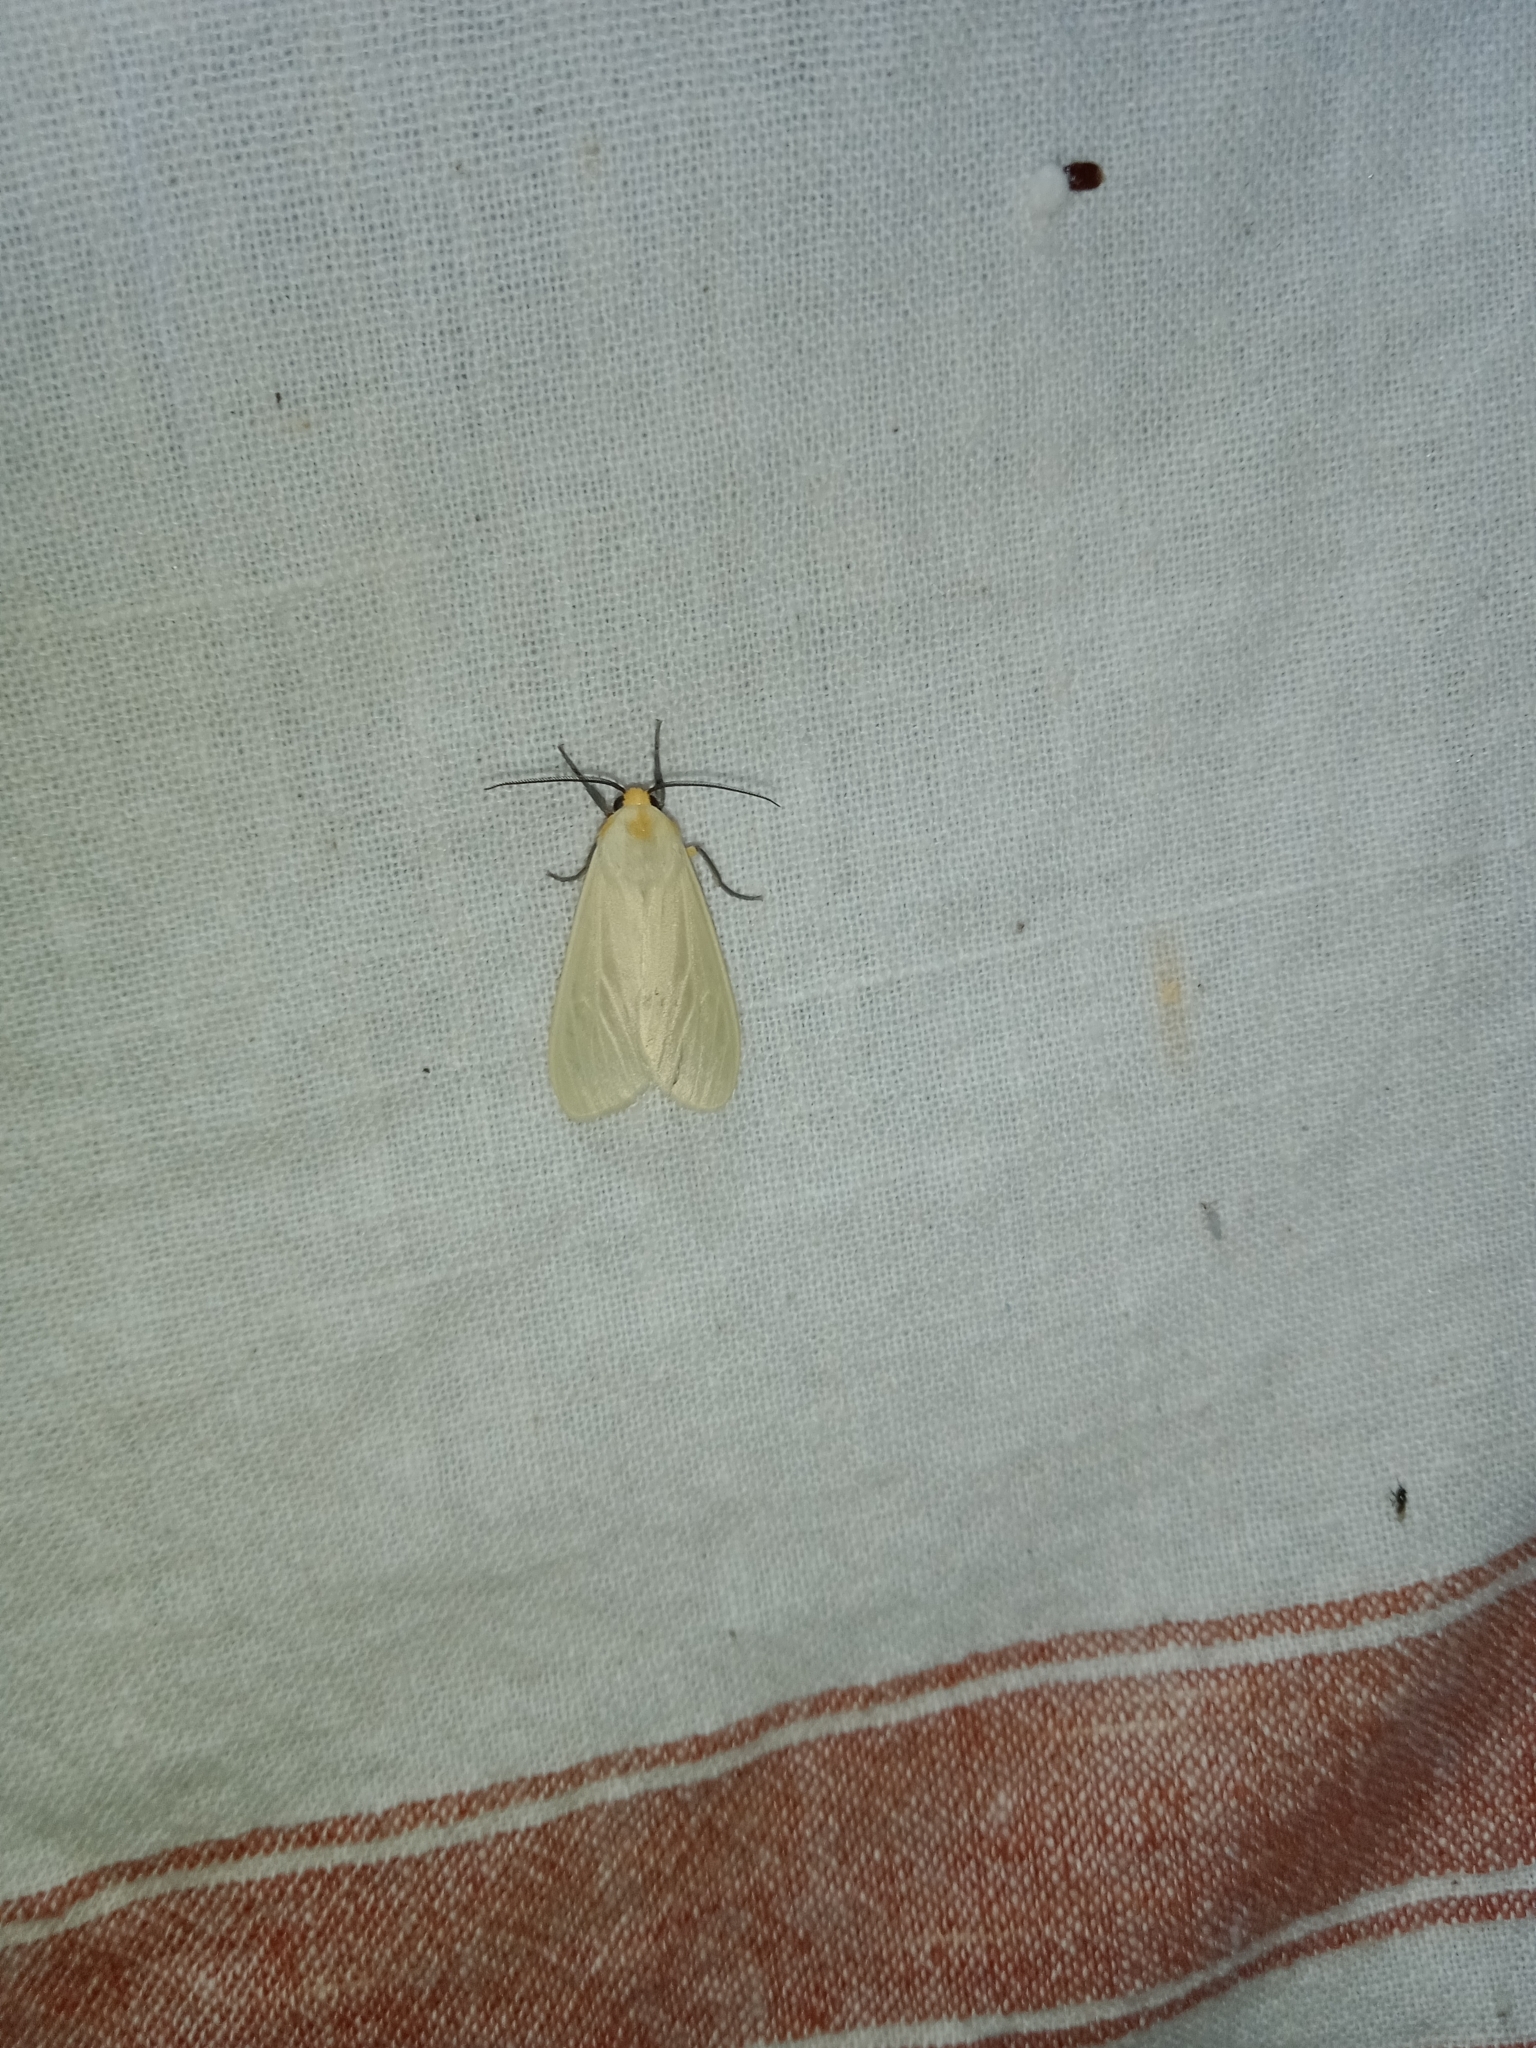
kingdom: Animalia
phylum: Arthropoda
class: Insecta
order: Lepidoptera
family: Erebidae
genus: Pareuchaetes
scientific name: Pareuchaetes pseudoinsulata
